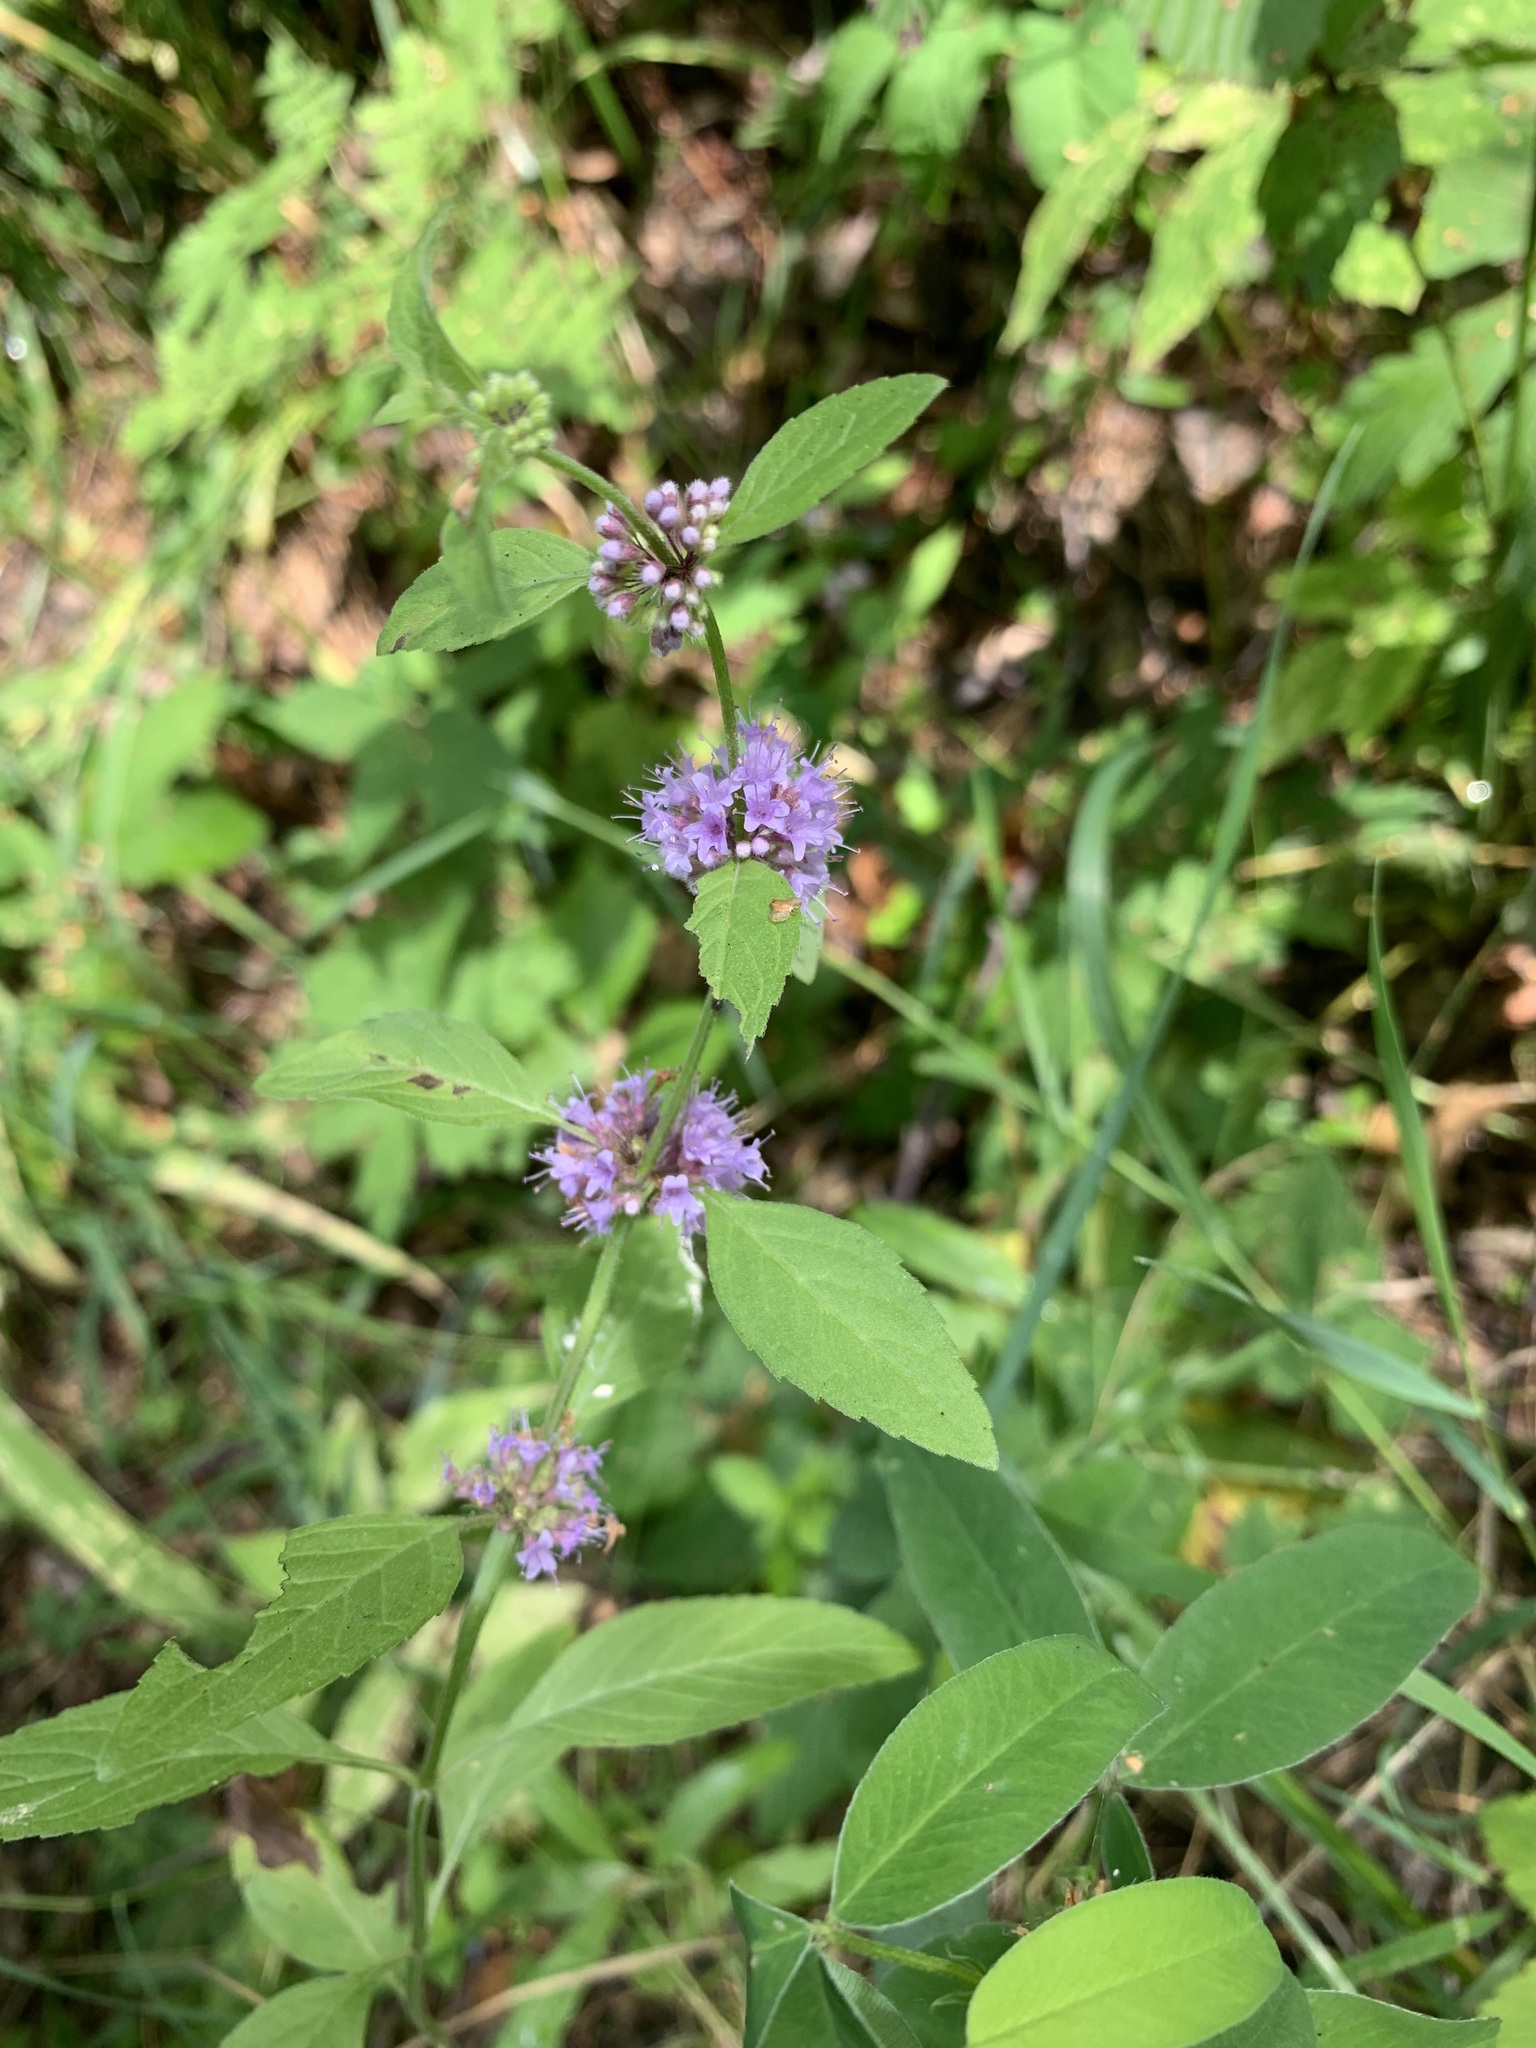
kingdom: Plantae
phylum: Tracheophyta
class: Magnoliopsida
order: Lamiales
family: Lamiaceae
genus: Mentha
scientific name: Mentha arvensis
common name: Corn mint
